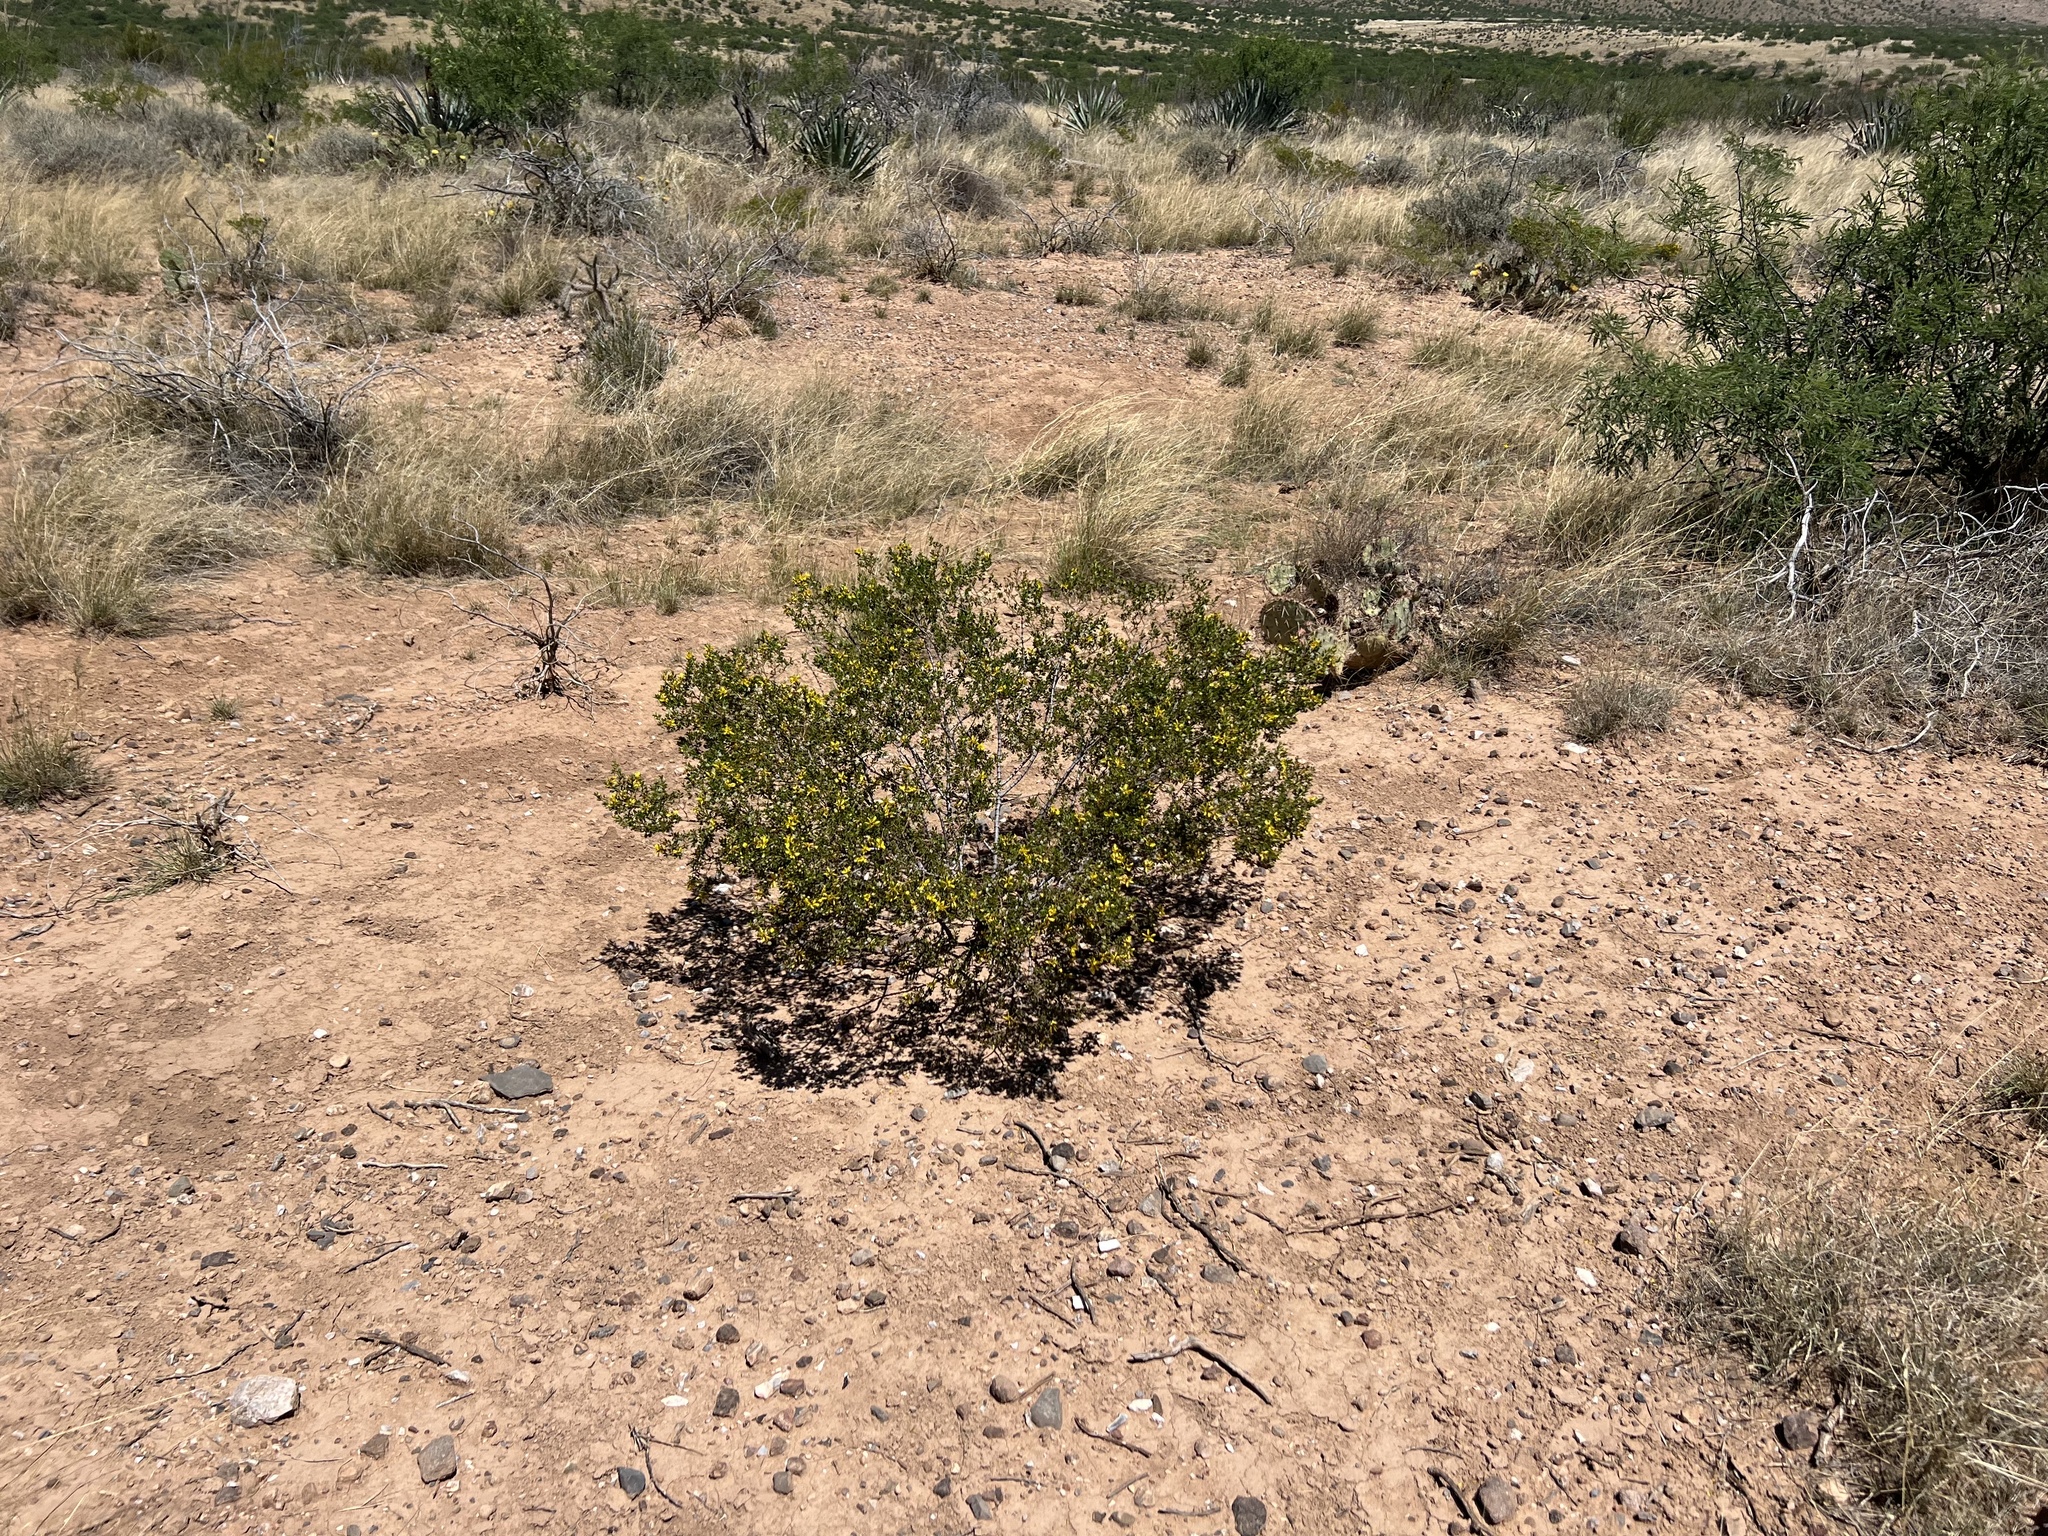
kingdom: Plantae
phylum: Tracheophyta
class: Magnoliopsida
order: Zygophyllales
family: Zygophyllaceae
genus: Larrea
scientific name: Larrea tridentata
